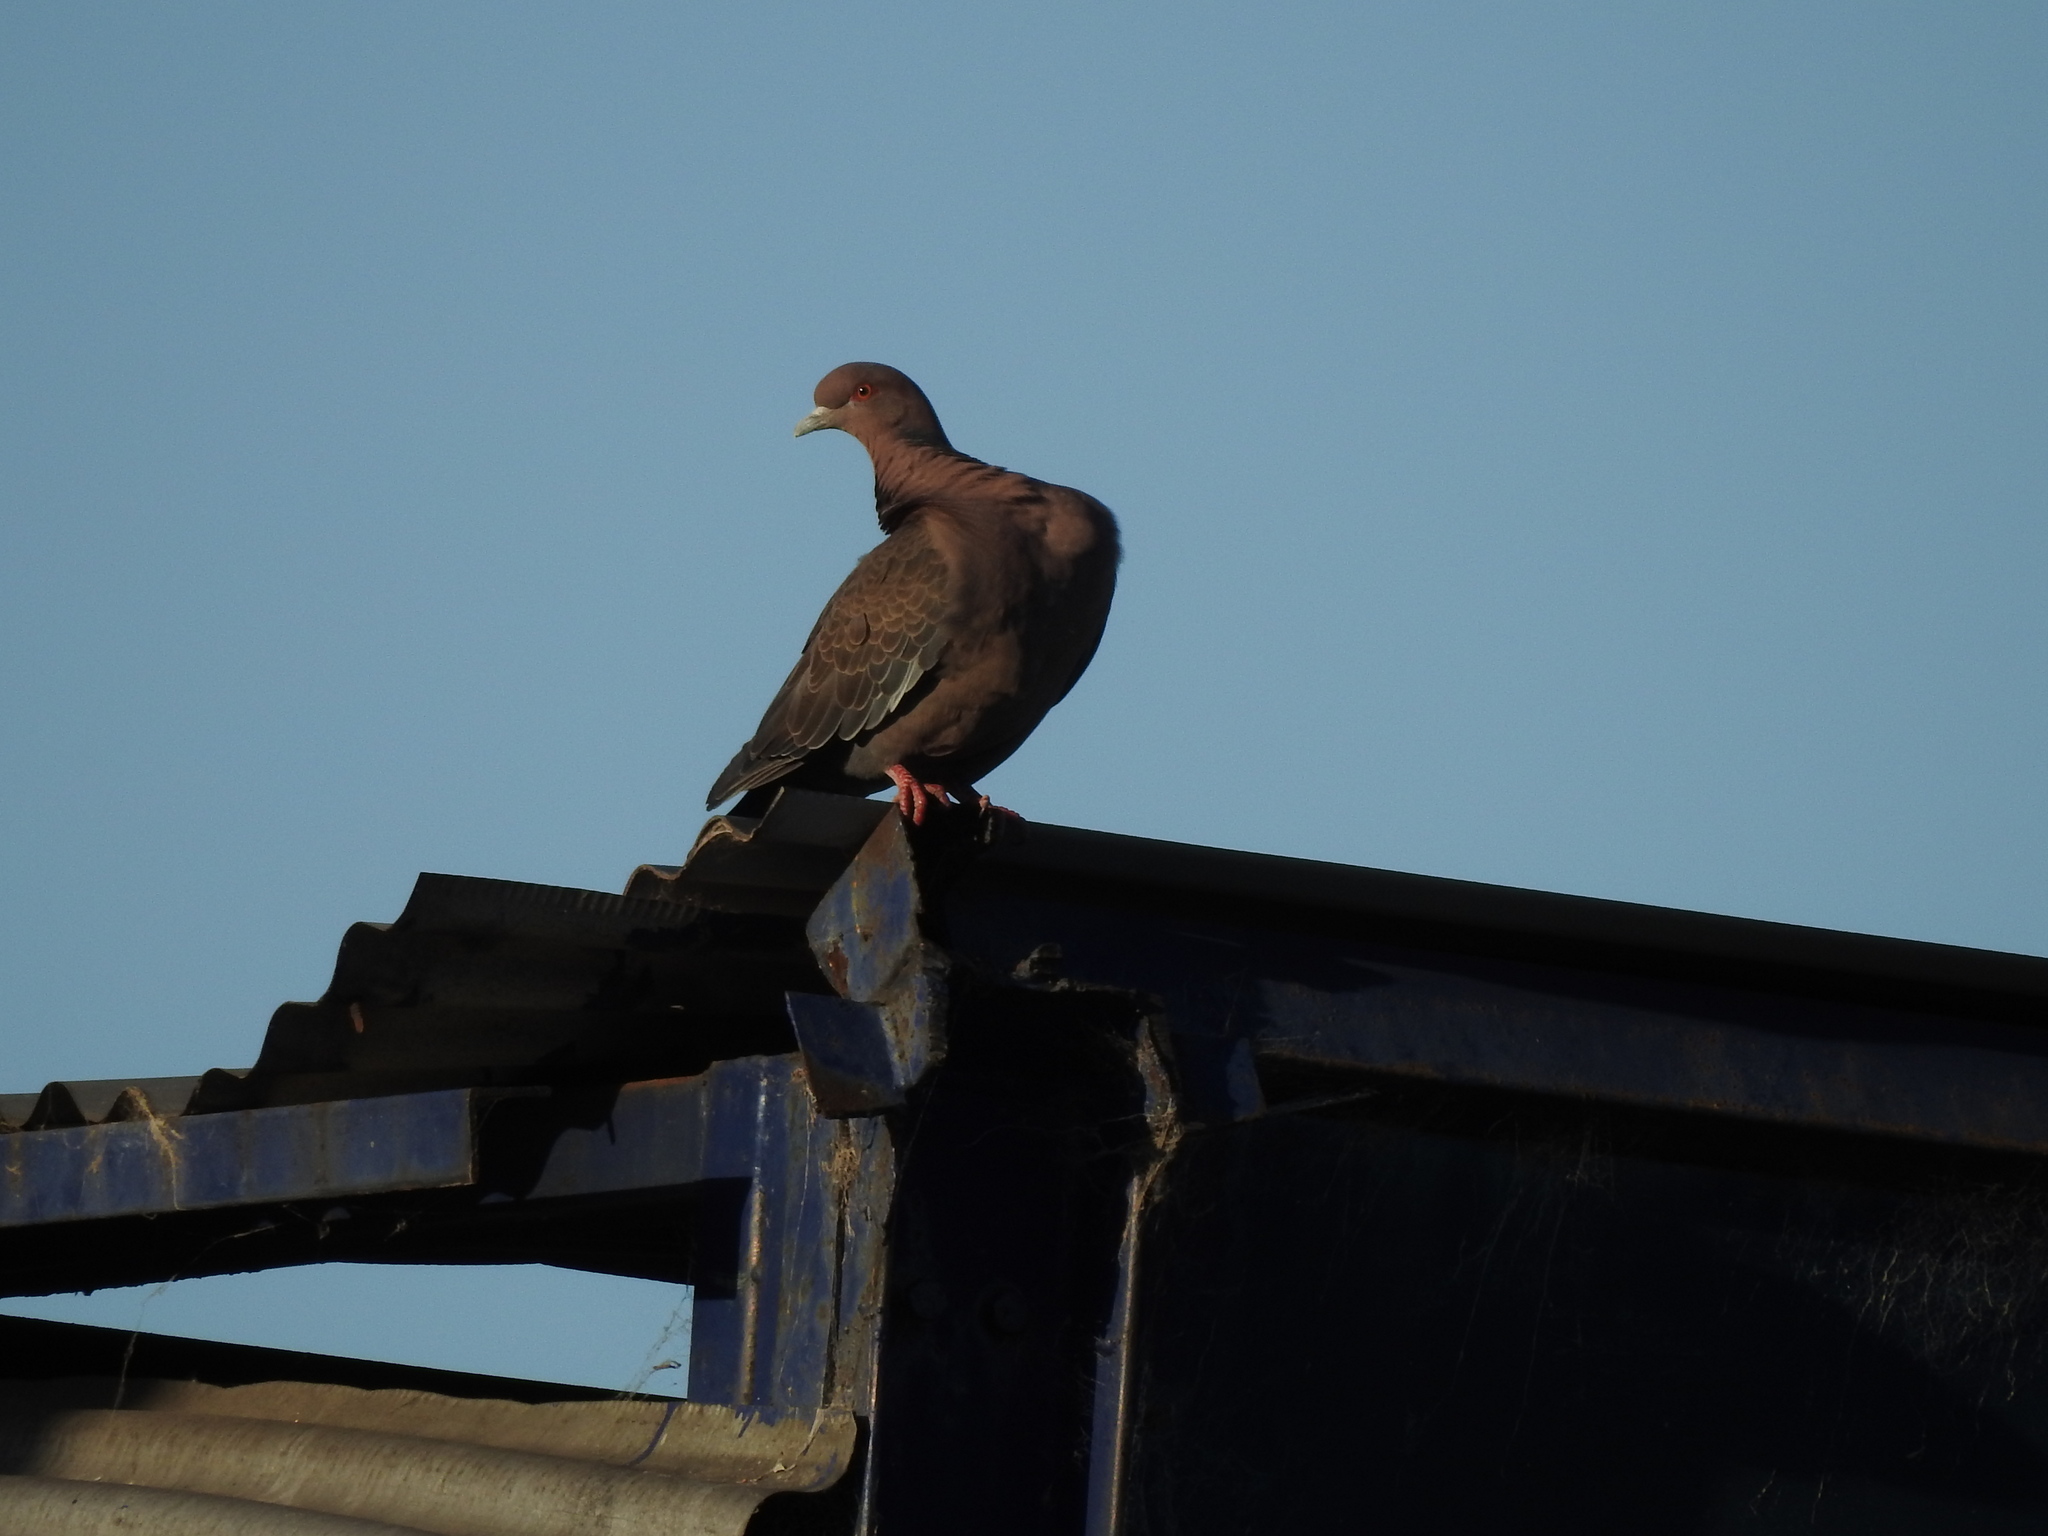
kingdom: Animalia
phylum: Chordata
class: Aves
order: Columbiformes
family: Columbidae
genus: Patagioenas
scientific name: Patagioenas picazuro
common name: Picazuro pigeon
